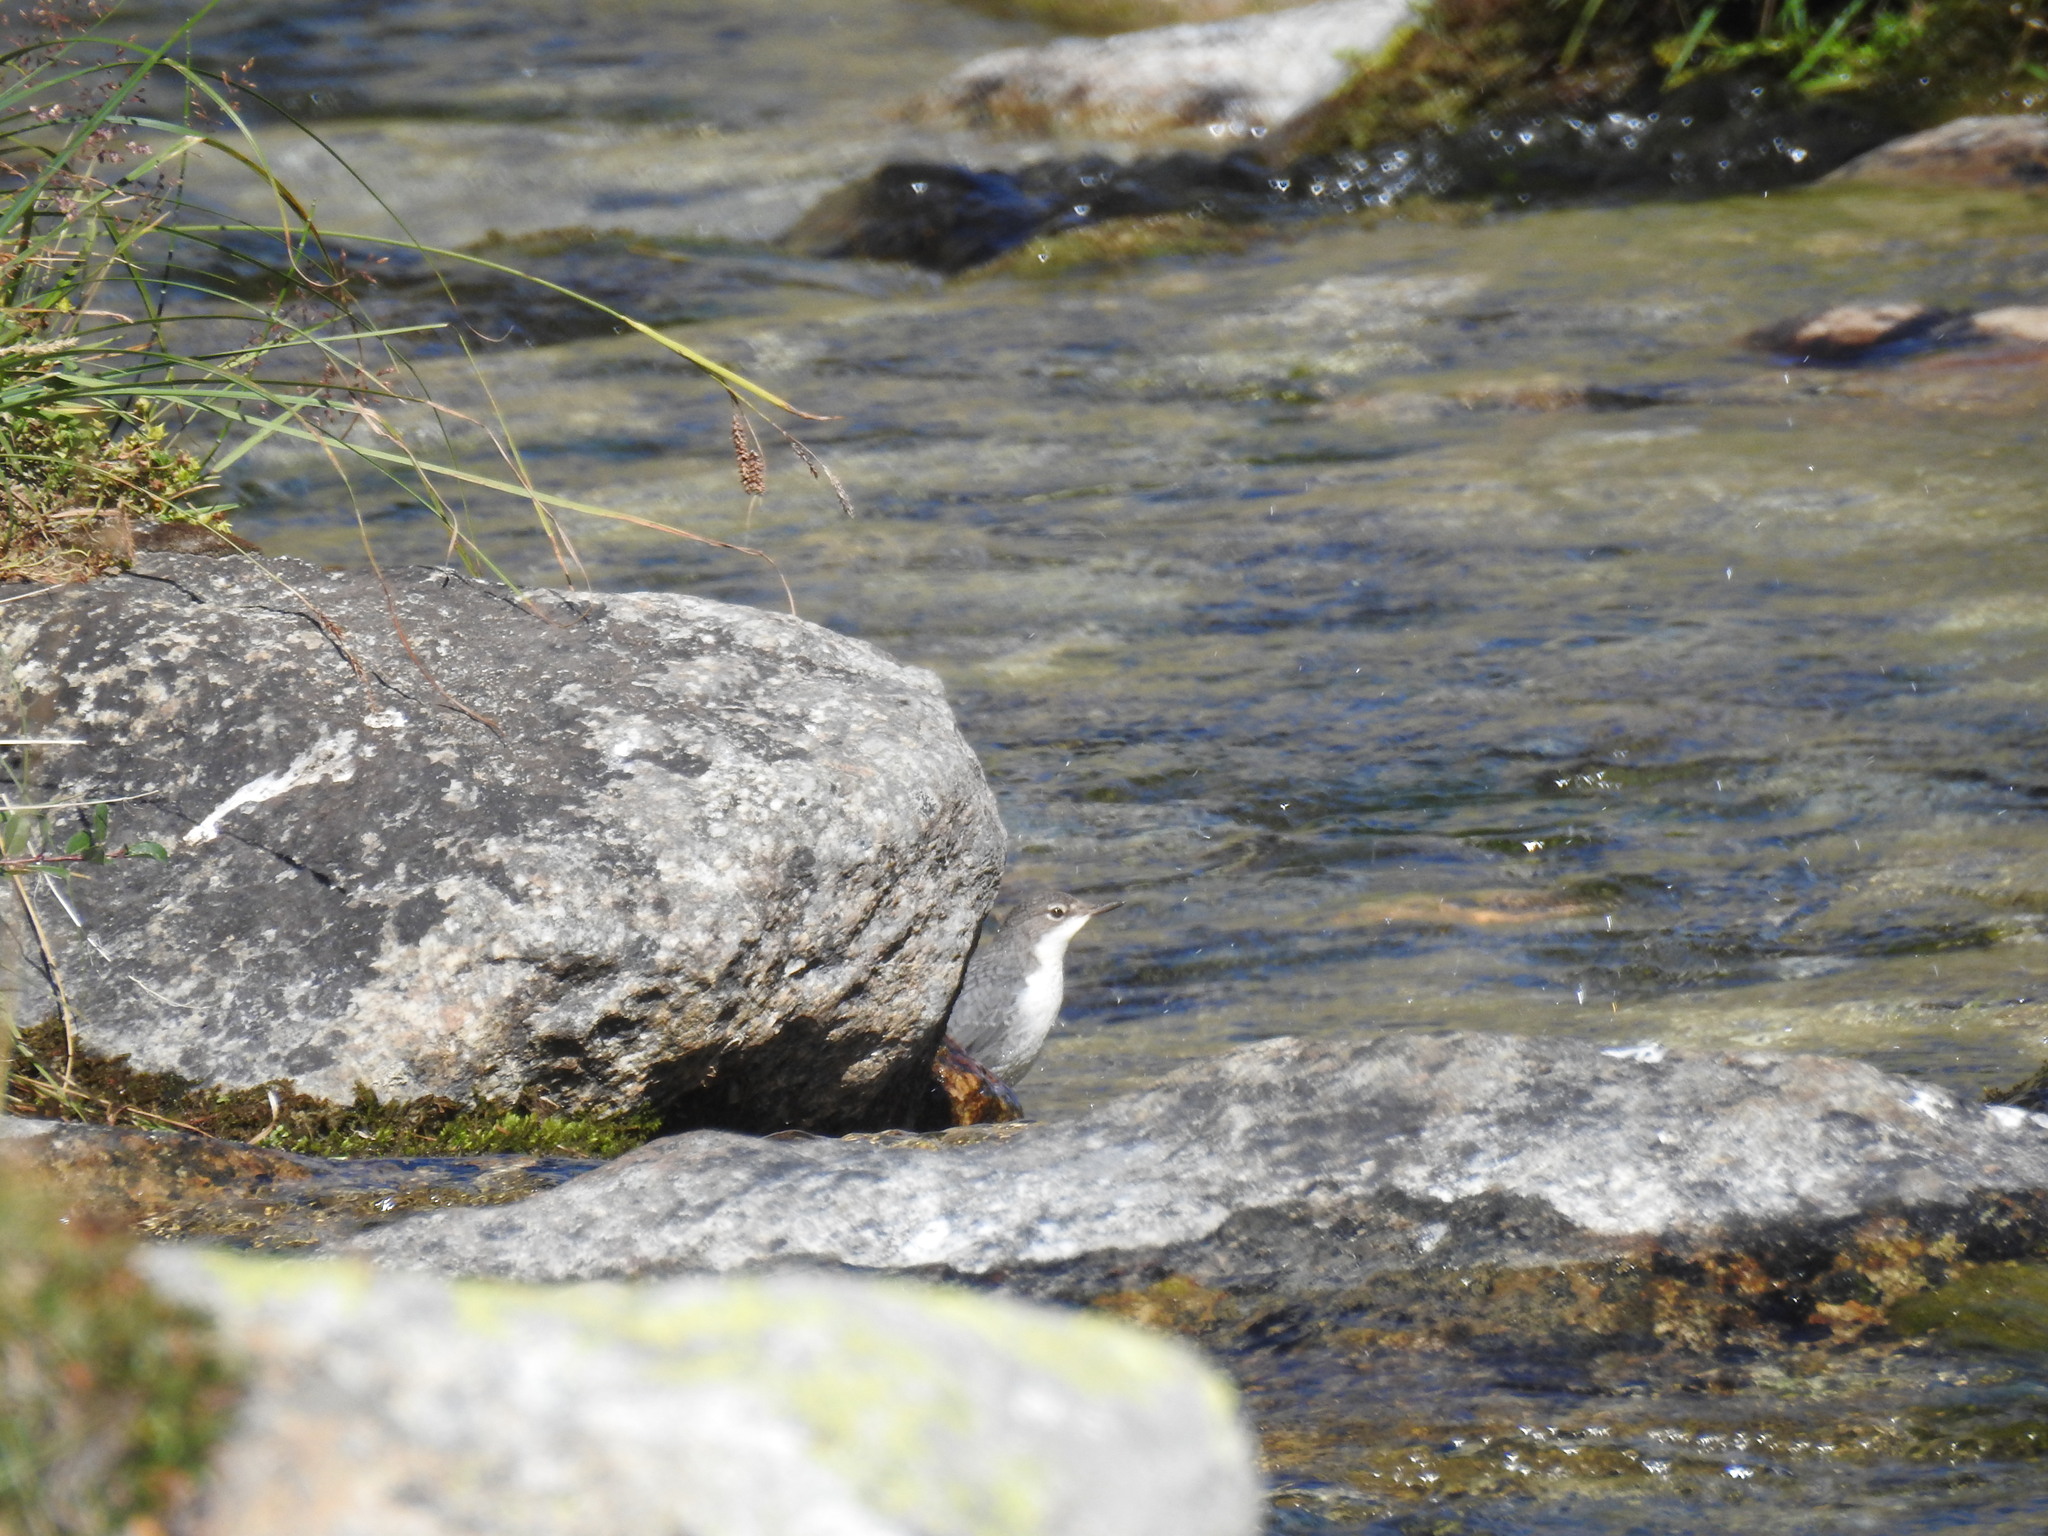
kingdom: Animalia
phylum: Chordata
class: Aves
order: Passeriformes
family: Cinclidae
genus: Cinclus
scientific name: Cinclus cinclus
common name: White-throated dipper
